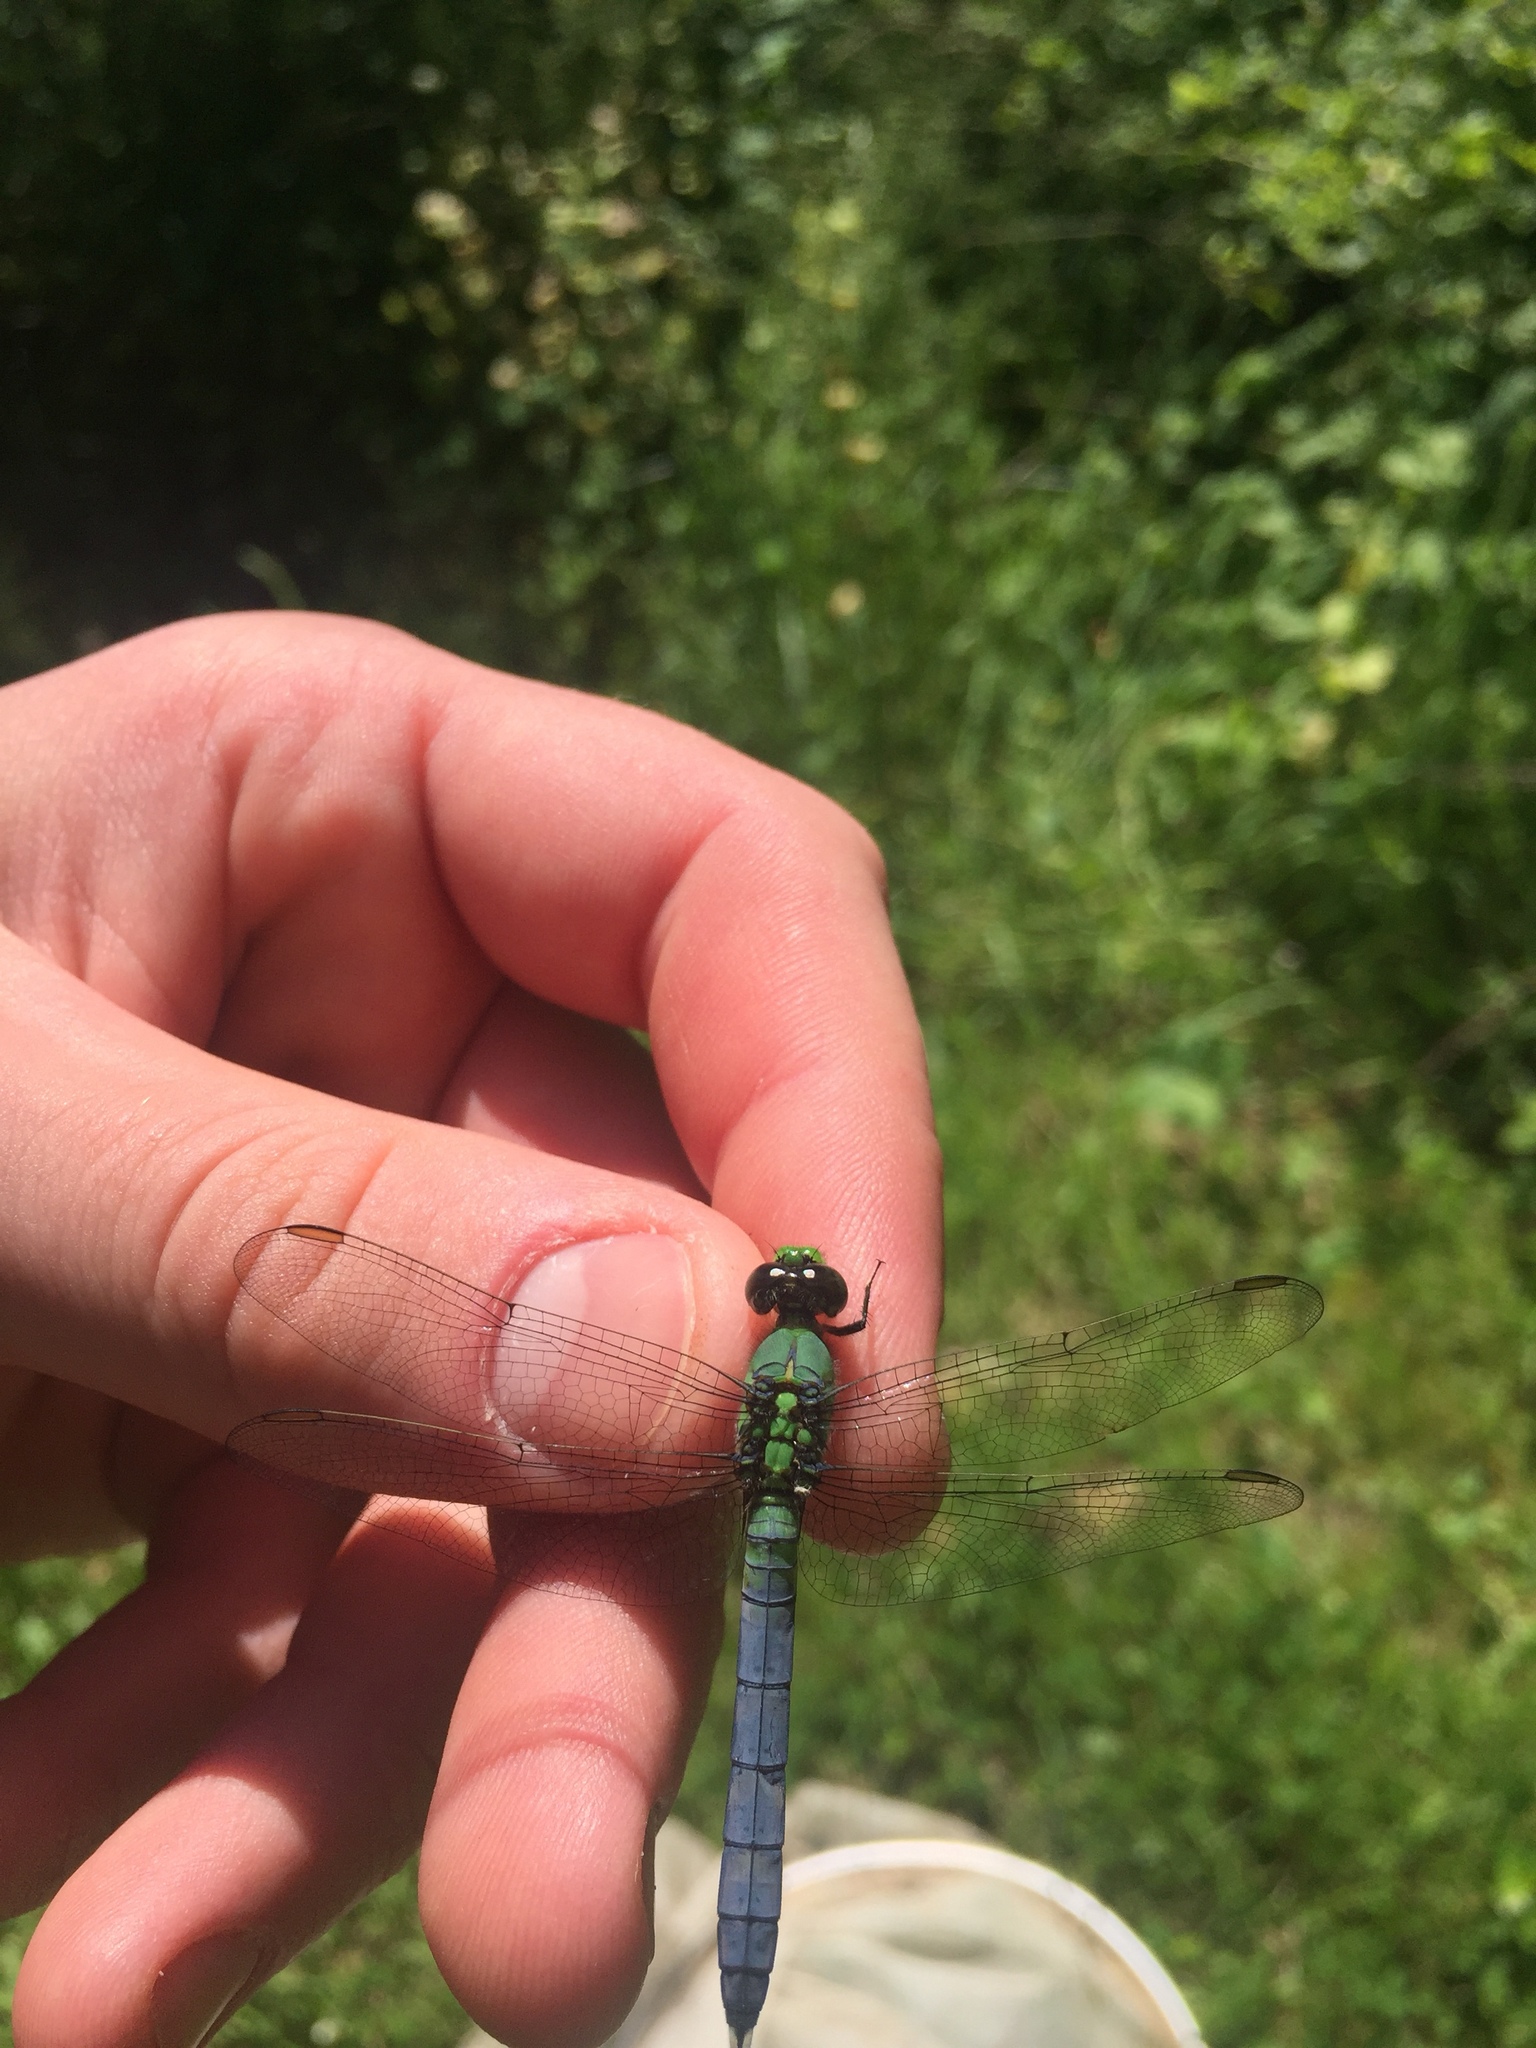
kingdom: Animalia
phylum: Arthropoda
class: Insecta
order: Odonata
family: Libellulidae
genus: Erythemis
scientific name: Erythemis simplicicollis
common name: Eastern pondhawk
